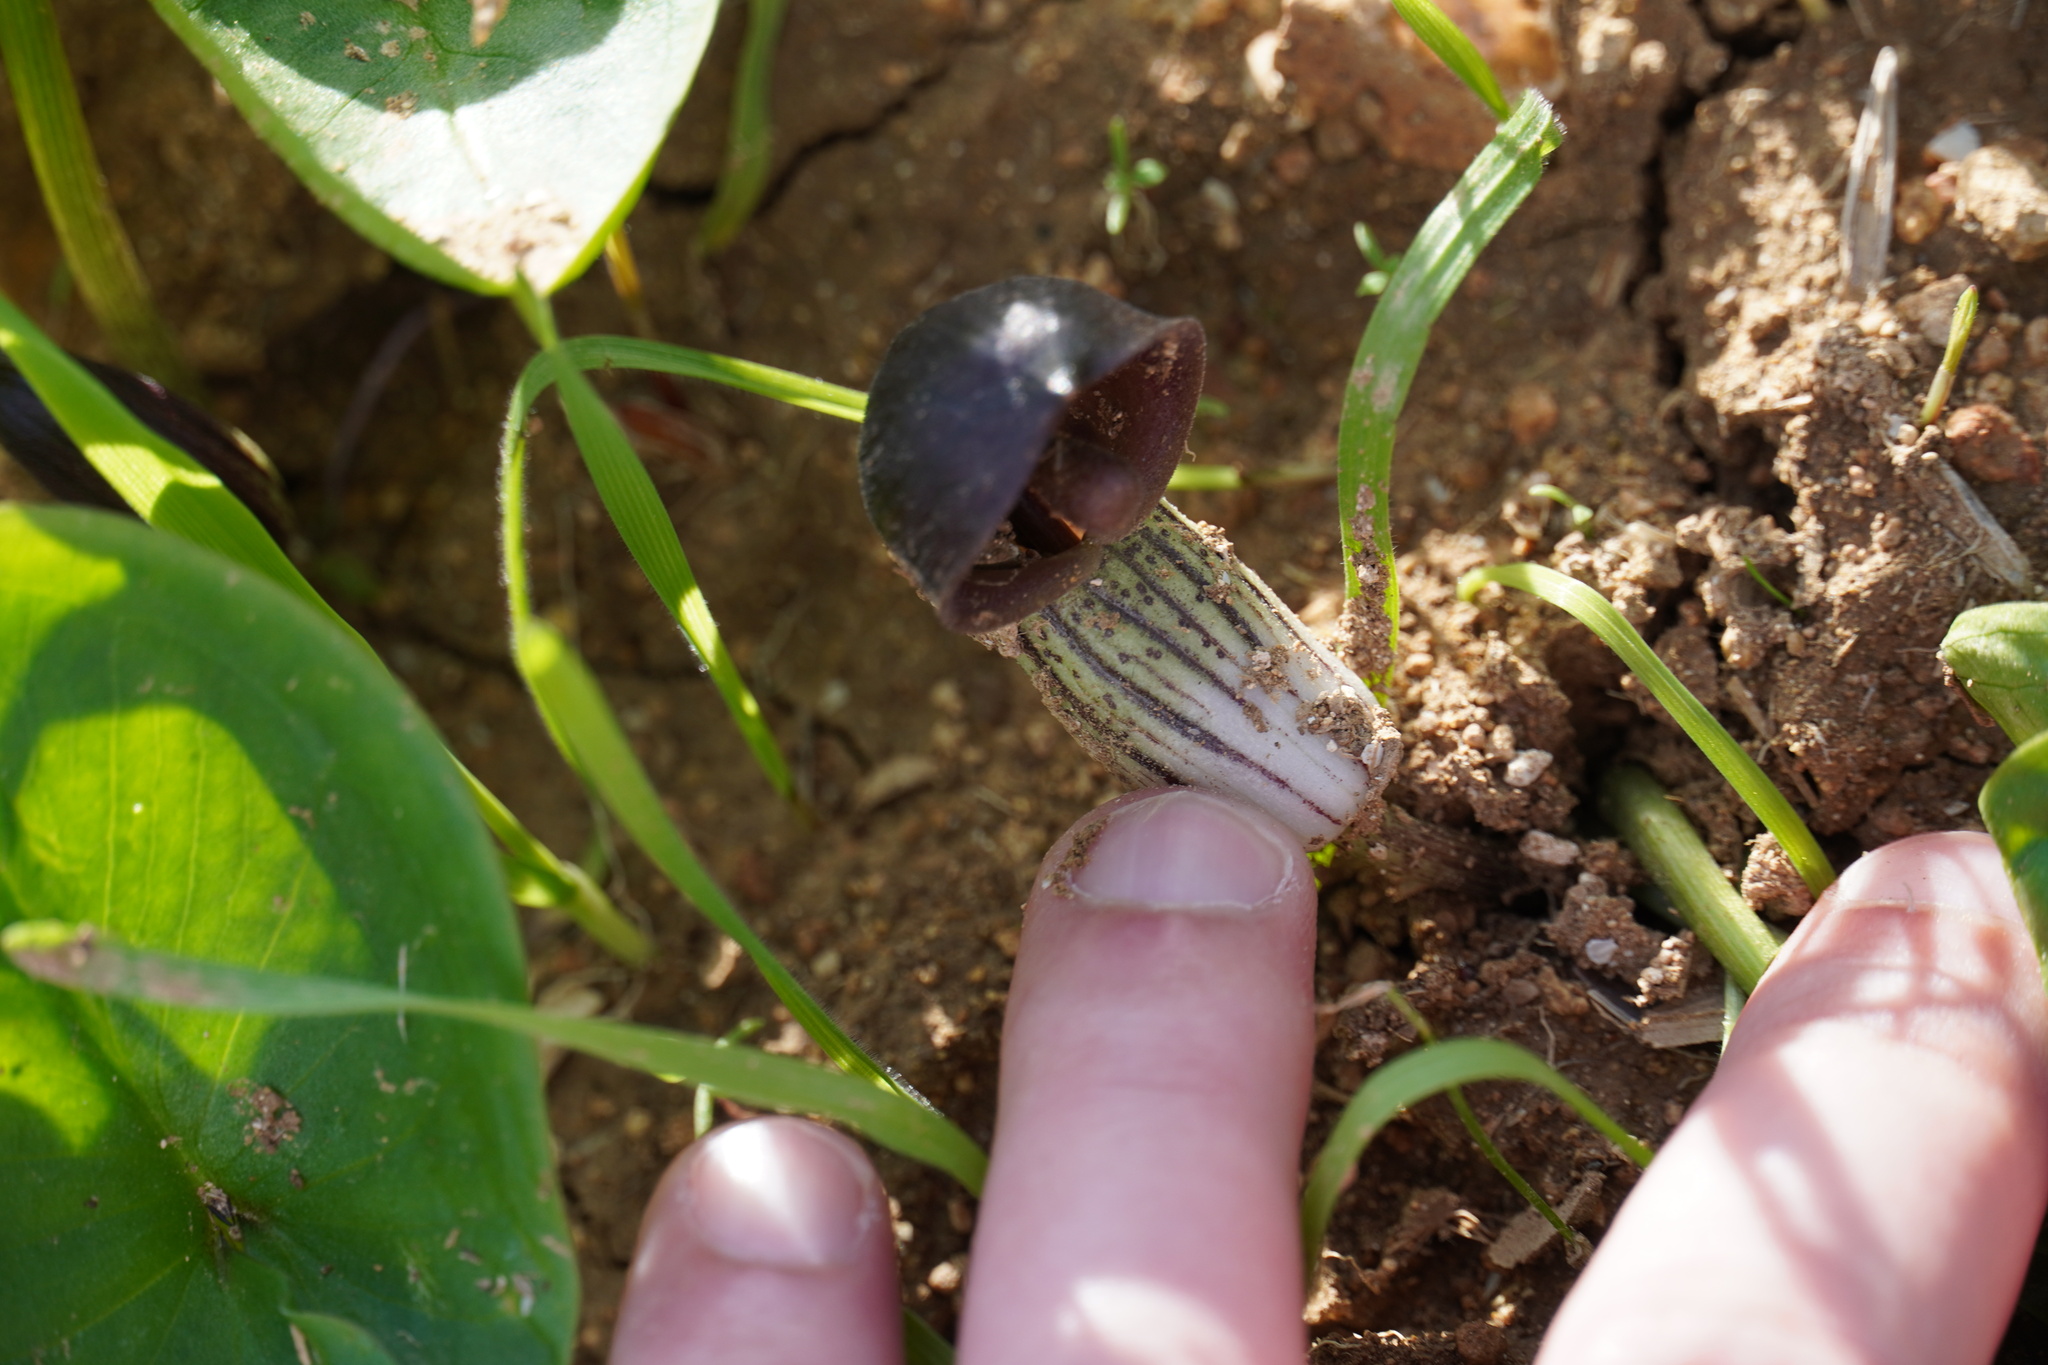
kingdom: Plantae
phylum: Tracheophyta
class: Liliopsida
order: Alismatales
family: Araceae
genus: Arisarum
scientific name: Arisarum simorrhinum
